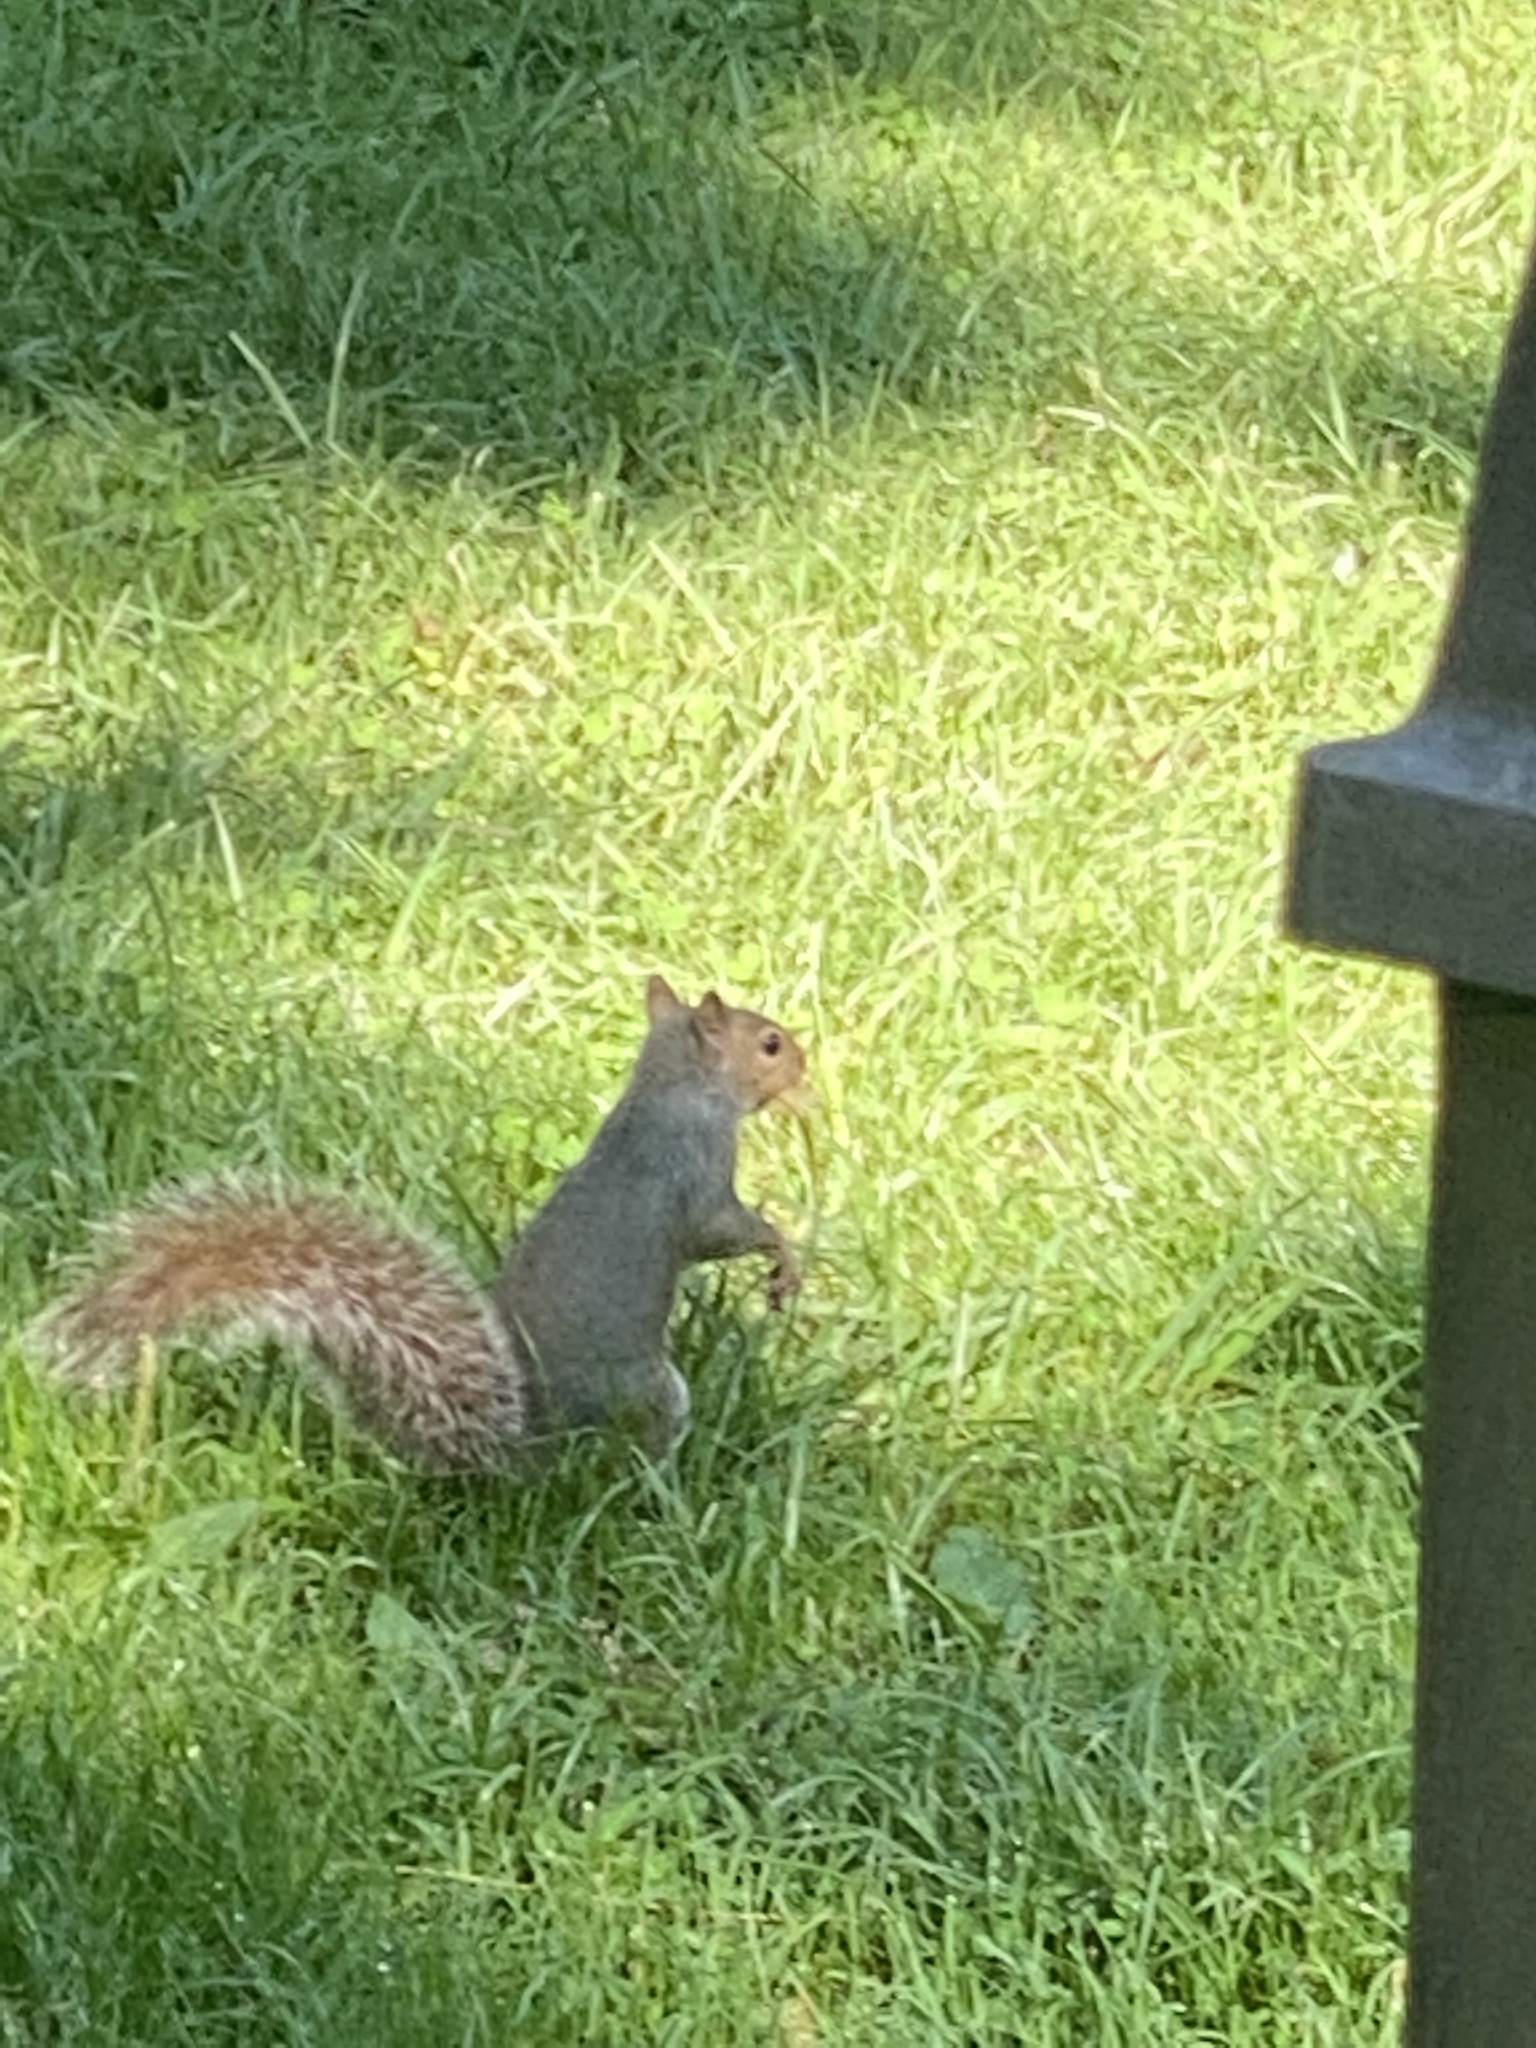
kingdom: Animalia
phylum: Chordata
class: Mammalia
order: Rodentia
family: Sciuridae
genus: Sciurus
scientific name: Sciurus carolinensis
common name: Eastern gray squirrel
